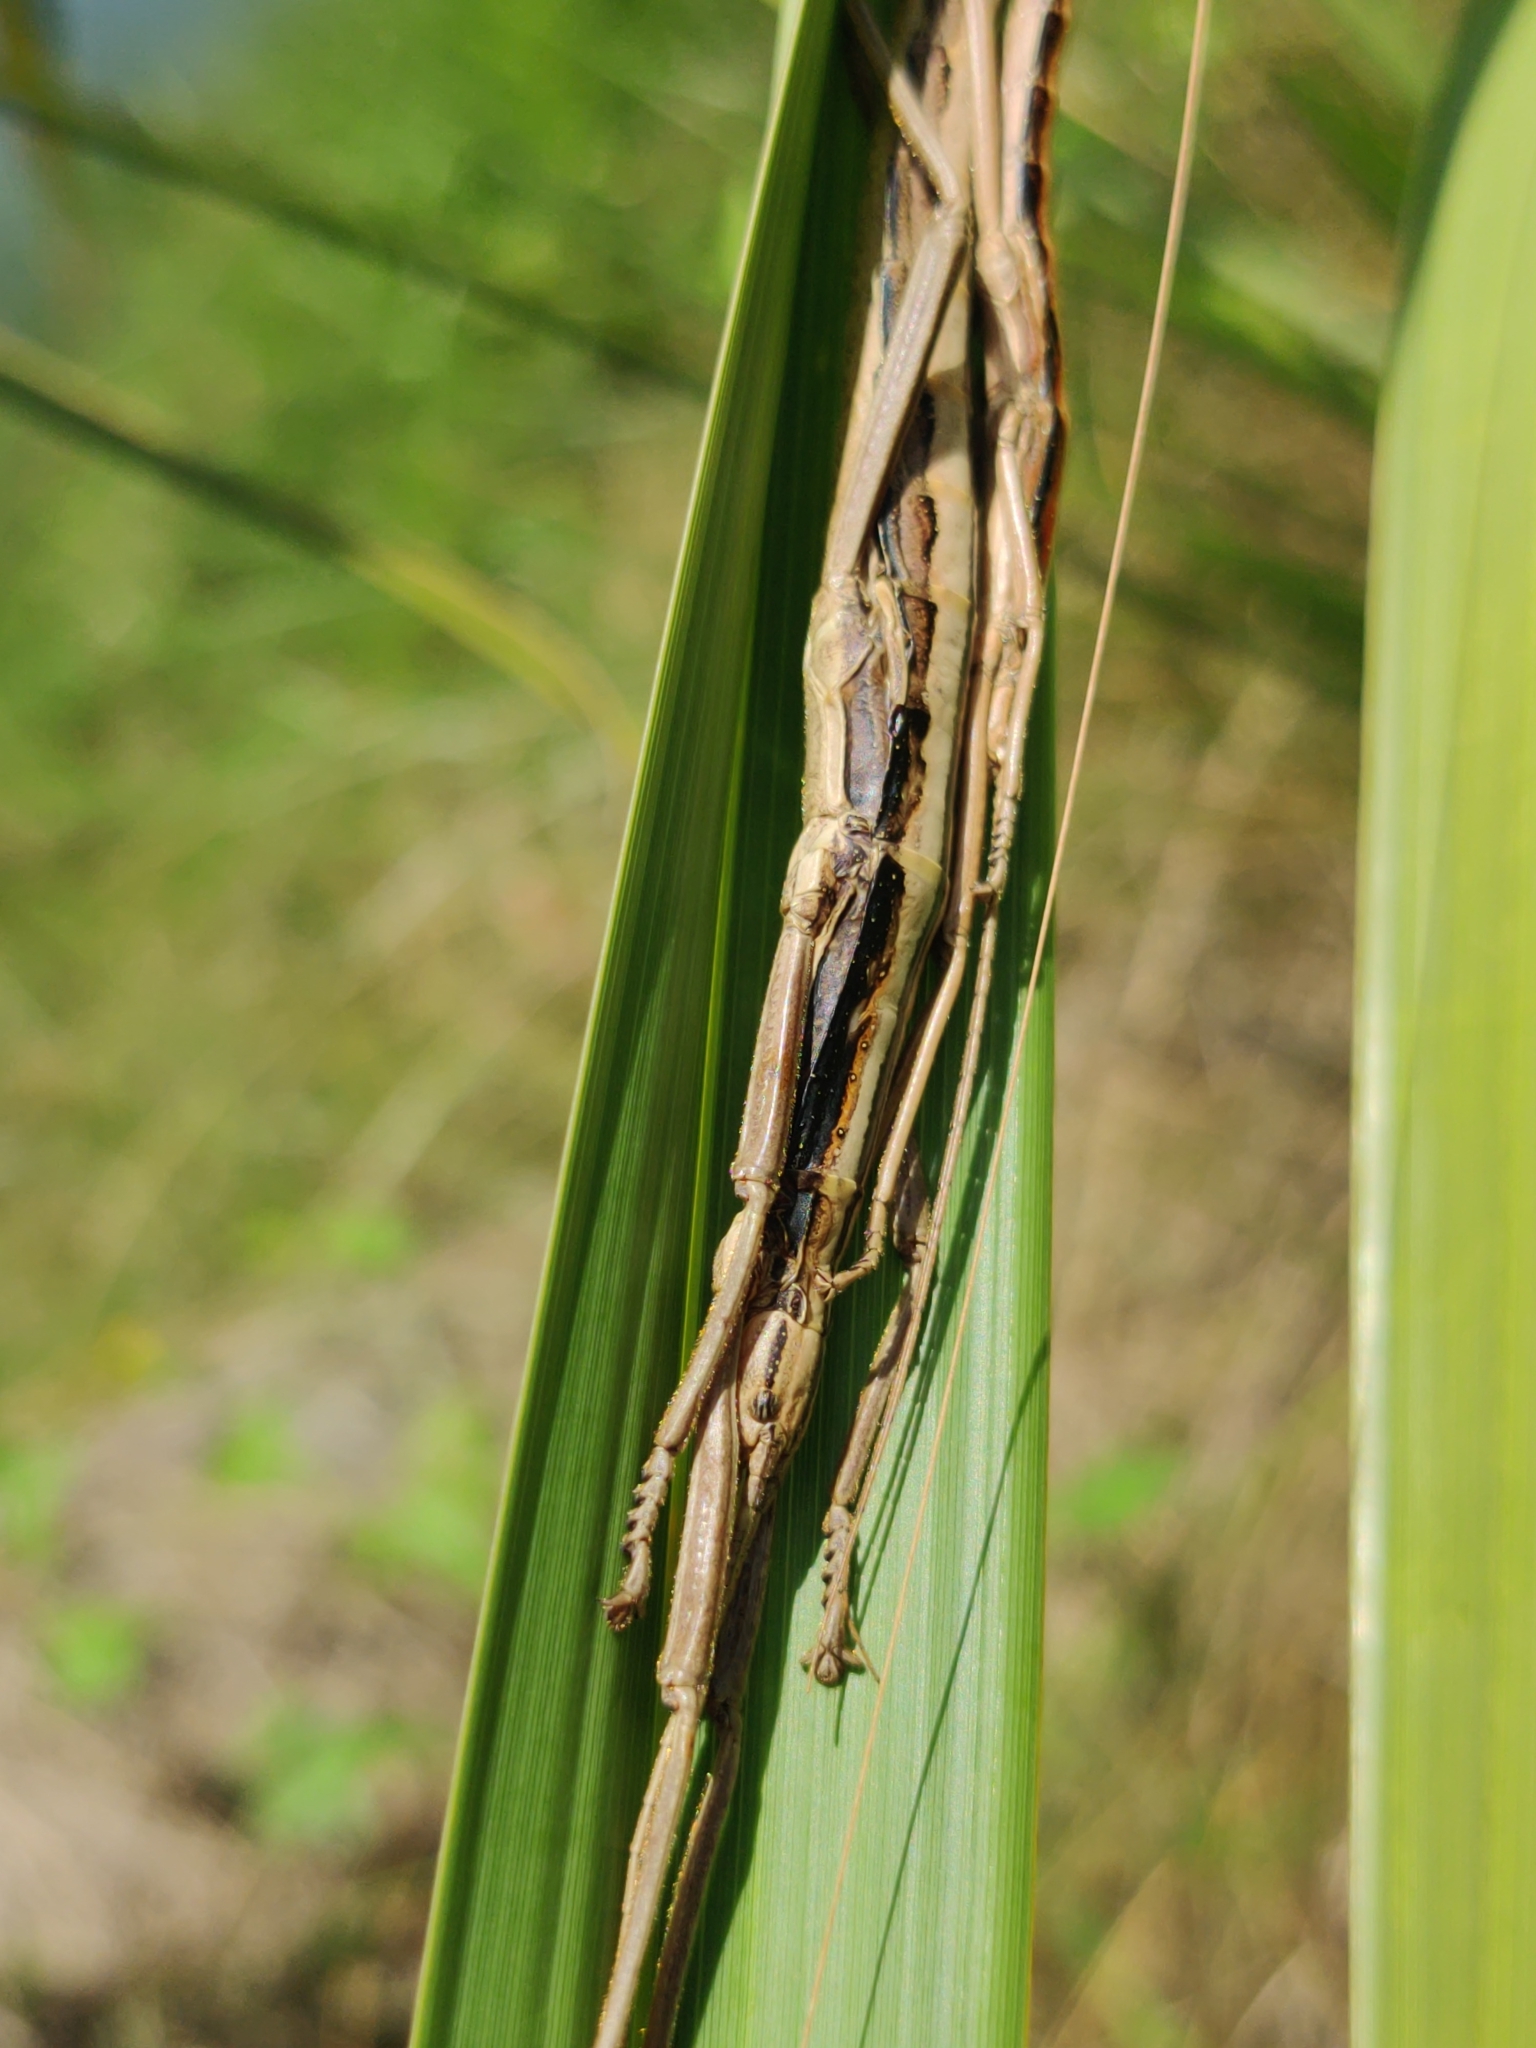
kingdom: Animalia
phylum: Arthropoda
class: Insecta
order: Phasmida
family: Pseudophasmatidae
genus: Anisomorpha
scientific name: Anisomorpha buprestoides
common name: Florida stick insect
